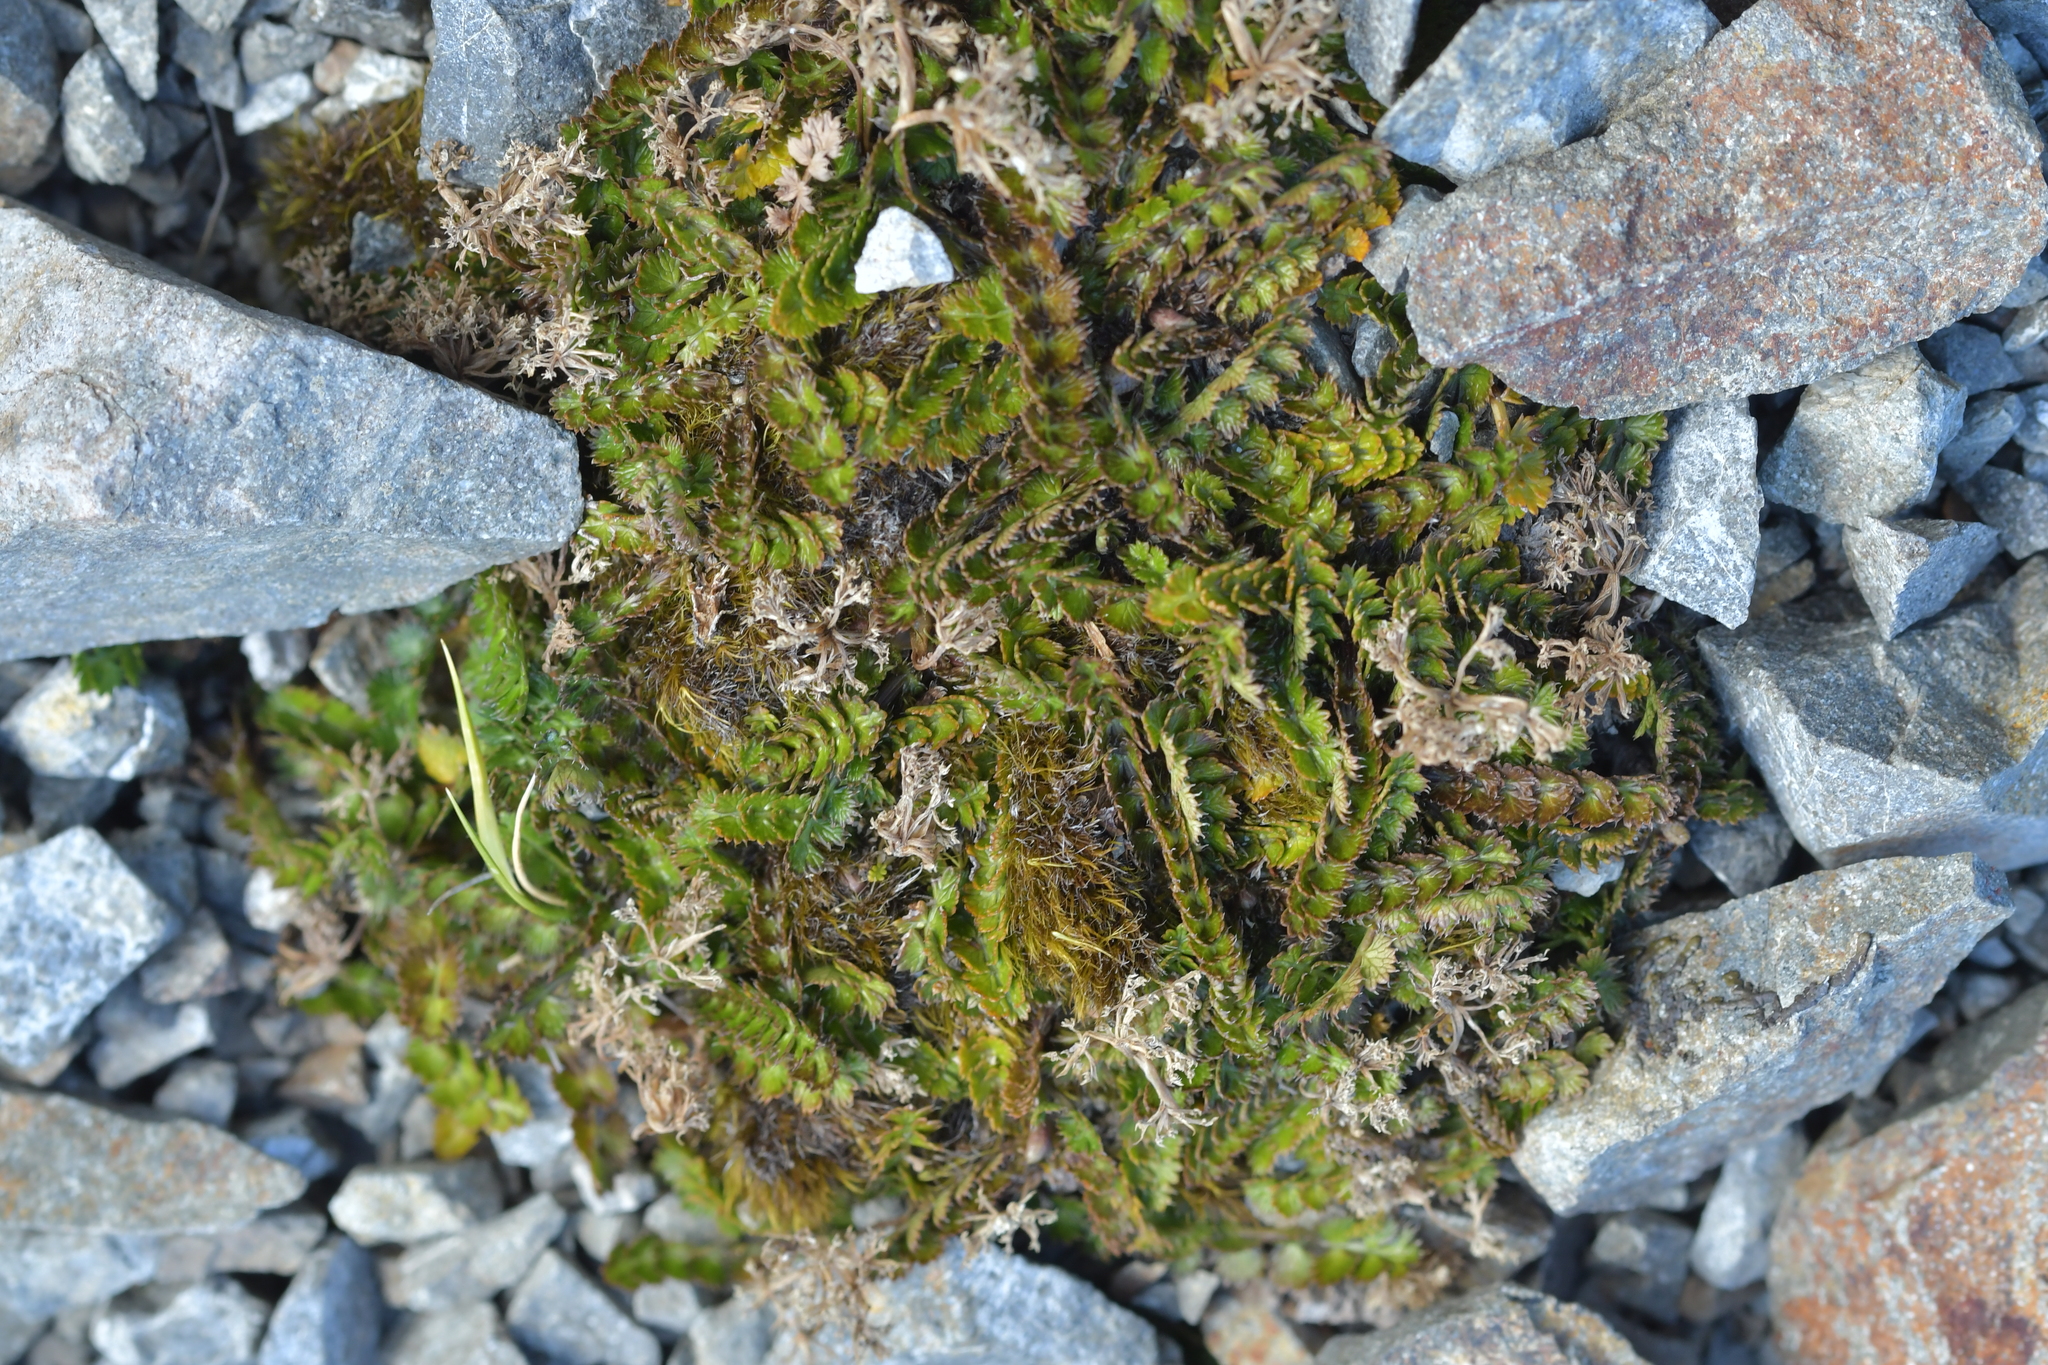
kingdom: Plantae
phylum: Tracheophyta
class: Magnoliopsida
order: Apiales
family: Apiaceae
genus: Anisotome
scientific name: Anisotome aromatica
